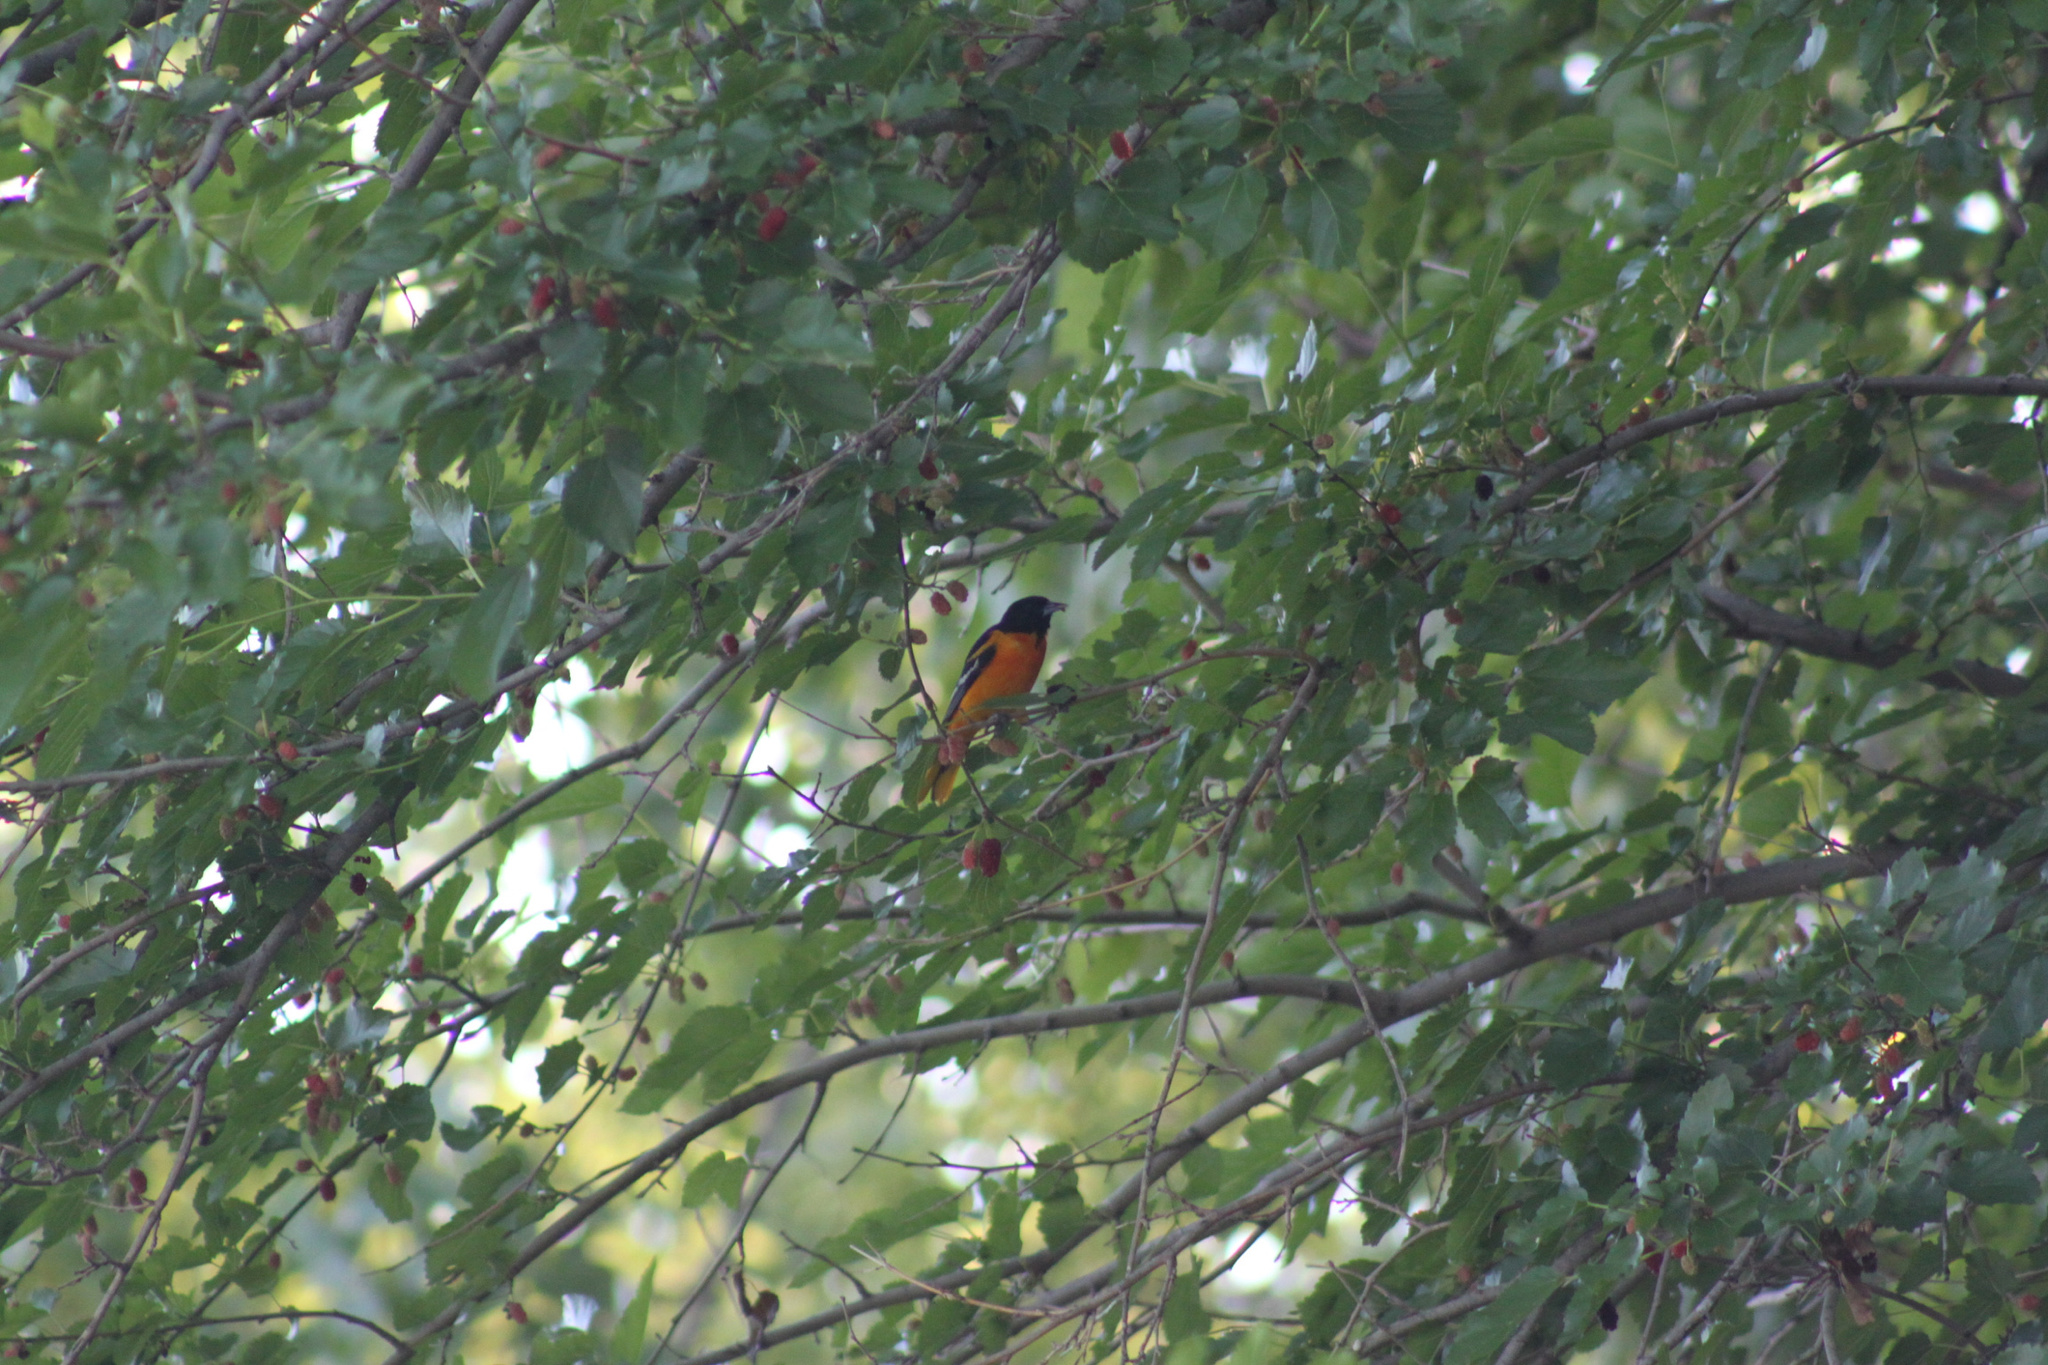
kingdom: Animalia
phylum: Chordata
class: Aves
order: Passeriformes
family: Icteridae
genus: Icterus
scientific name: Icterus galbula
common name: Baltimore oriole
